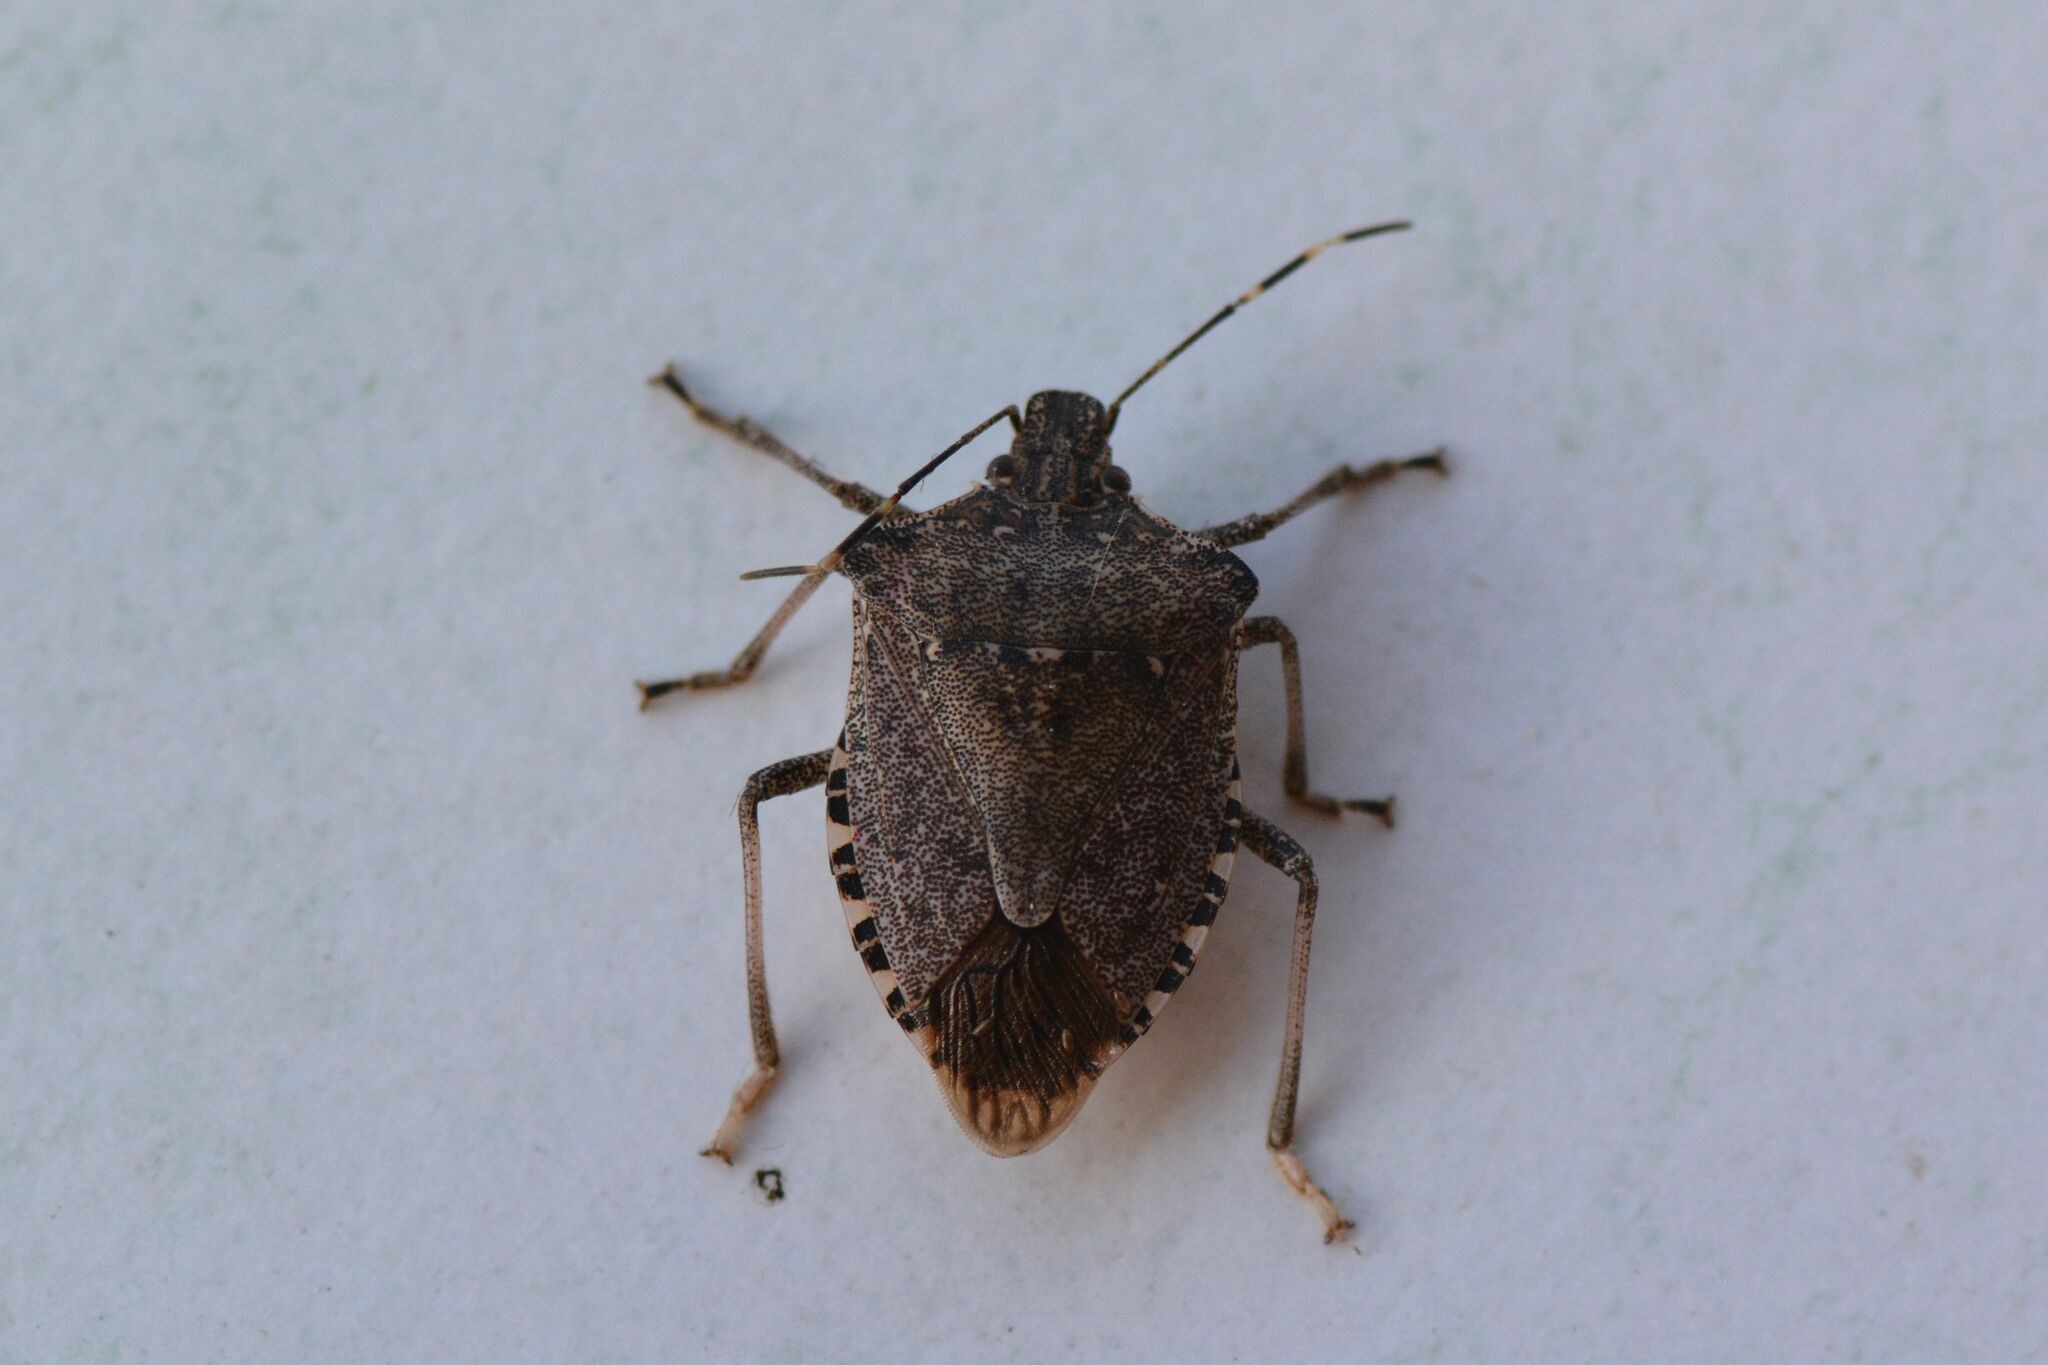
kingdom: Animalia
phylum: Arthropoda
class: Insecta
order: Hemiptera
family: Pentatomidae
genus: Halyomorpha
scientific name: Halyomorpha halys
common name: Brown marmorated stink bug
